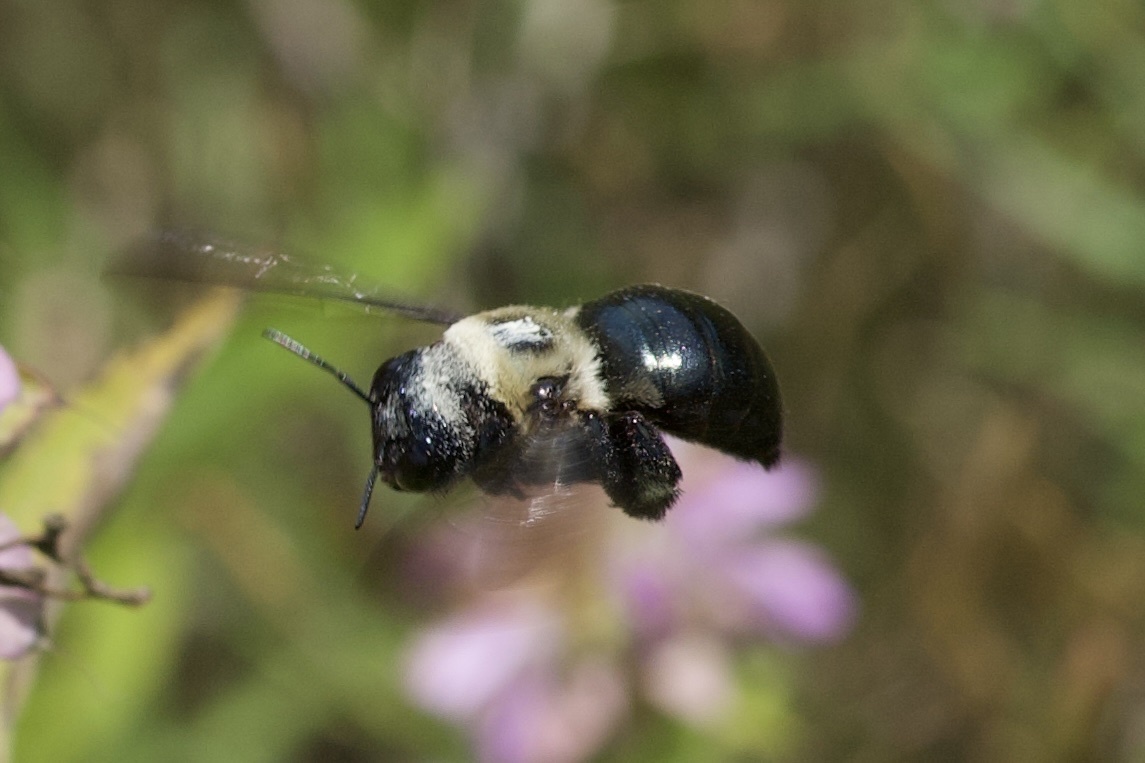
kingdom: Animalia
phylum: Arthropoda
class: Insecta
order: Hymenoptera
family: Apidae
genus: Xylocopa
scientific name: Xylocopa virginica
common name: Carpenter bee
